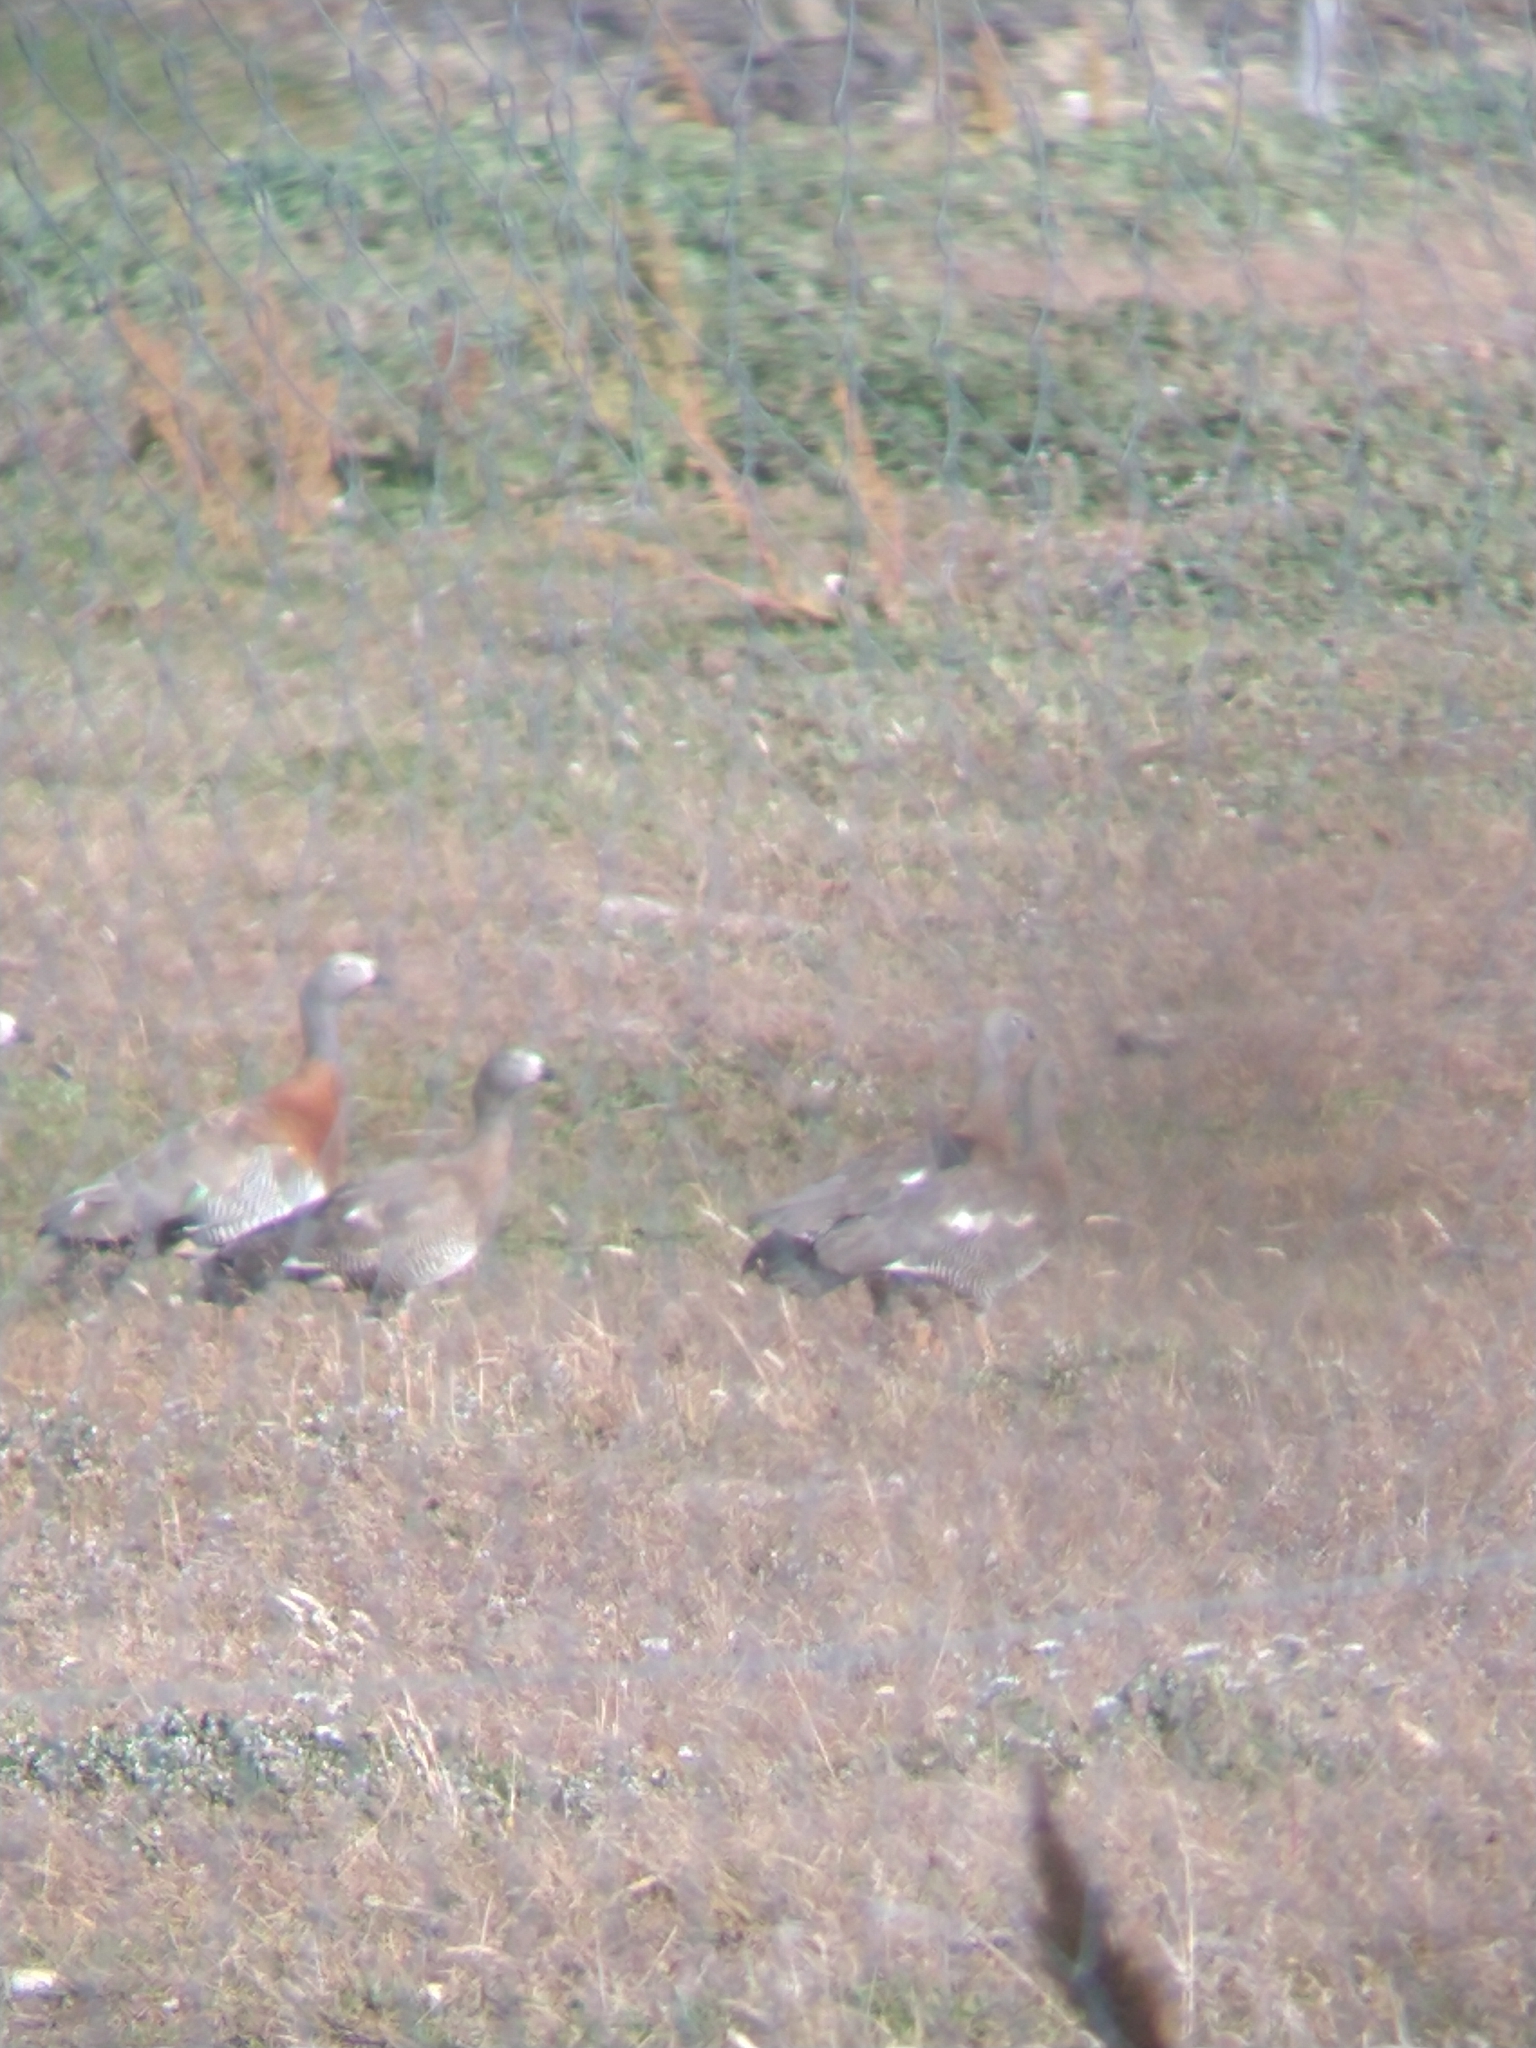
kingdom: Animalia
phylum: Chordata
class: Aves
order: Anseriformes
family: Anatidae
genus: Chloephaga
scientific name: Chloephaga poliocephala
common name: Ashy-headed goose
